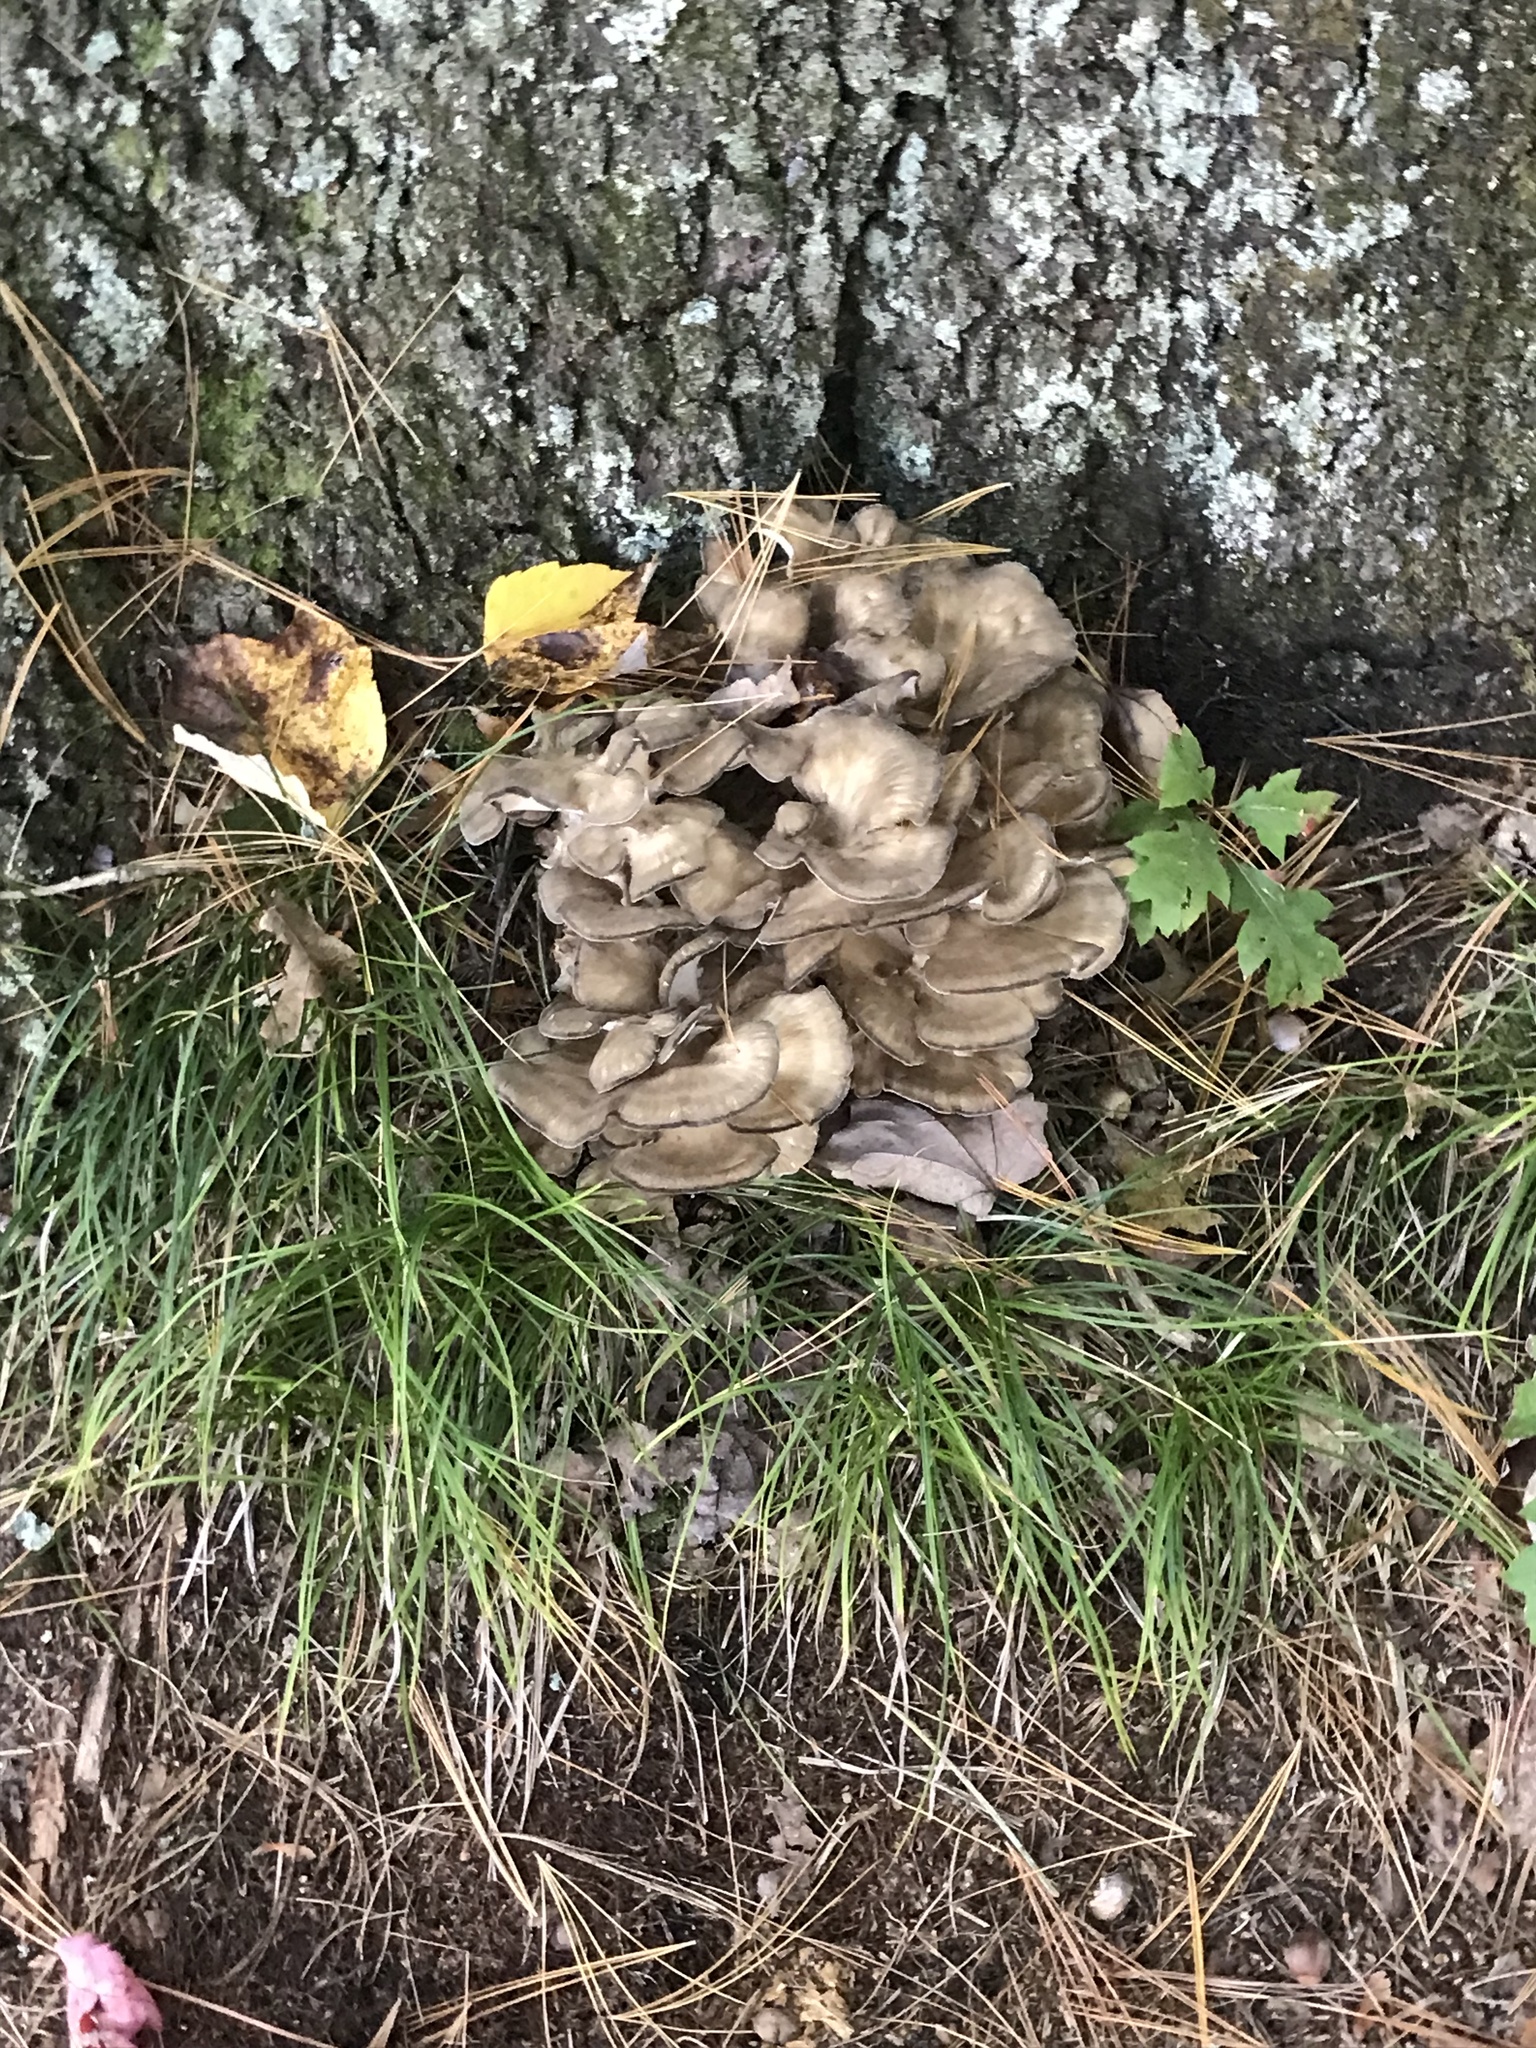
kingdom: Fungi
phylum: Basidiomycota
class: Agaricomycetes
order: Polyporales
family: Grifolaceae
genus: Grifola
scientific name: Grifola frondosa
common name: Hen of the woods
